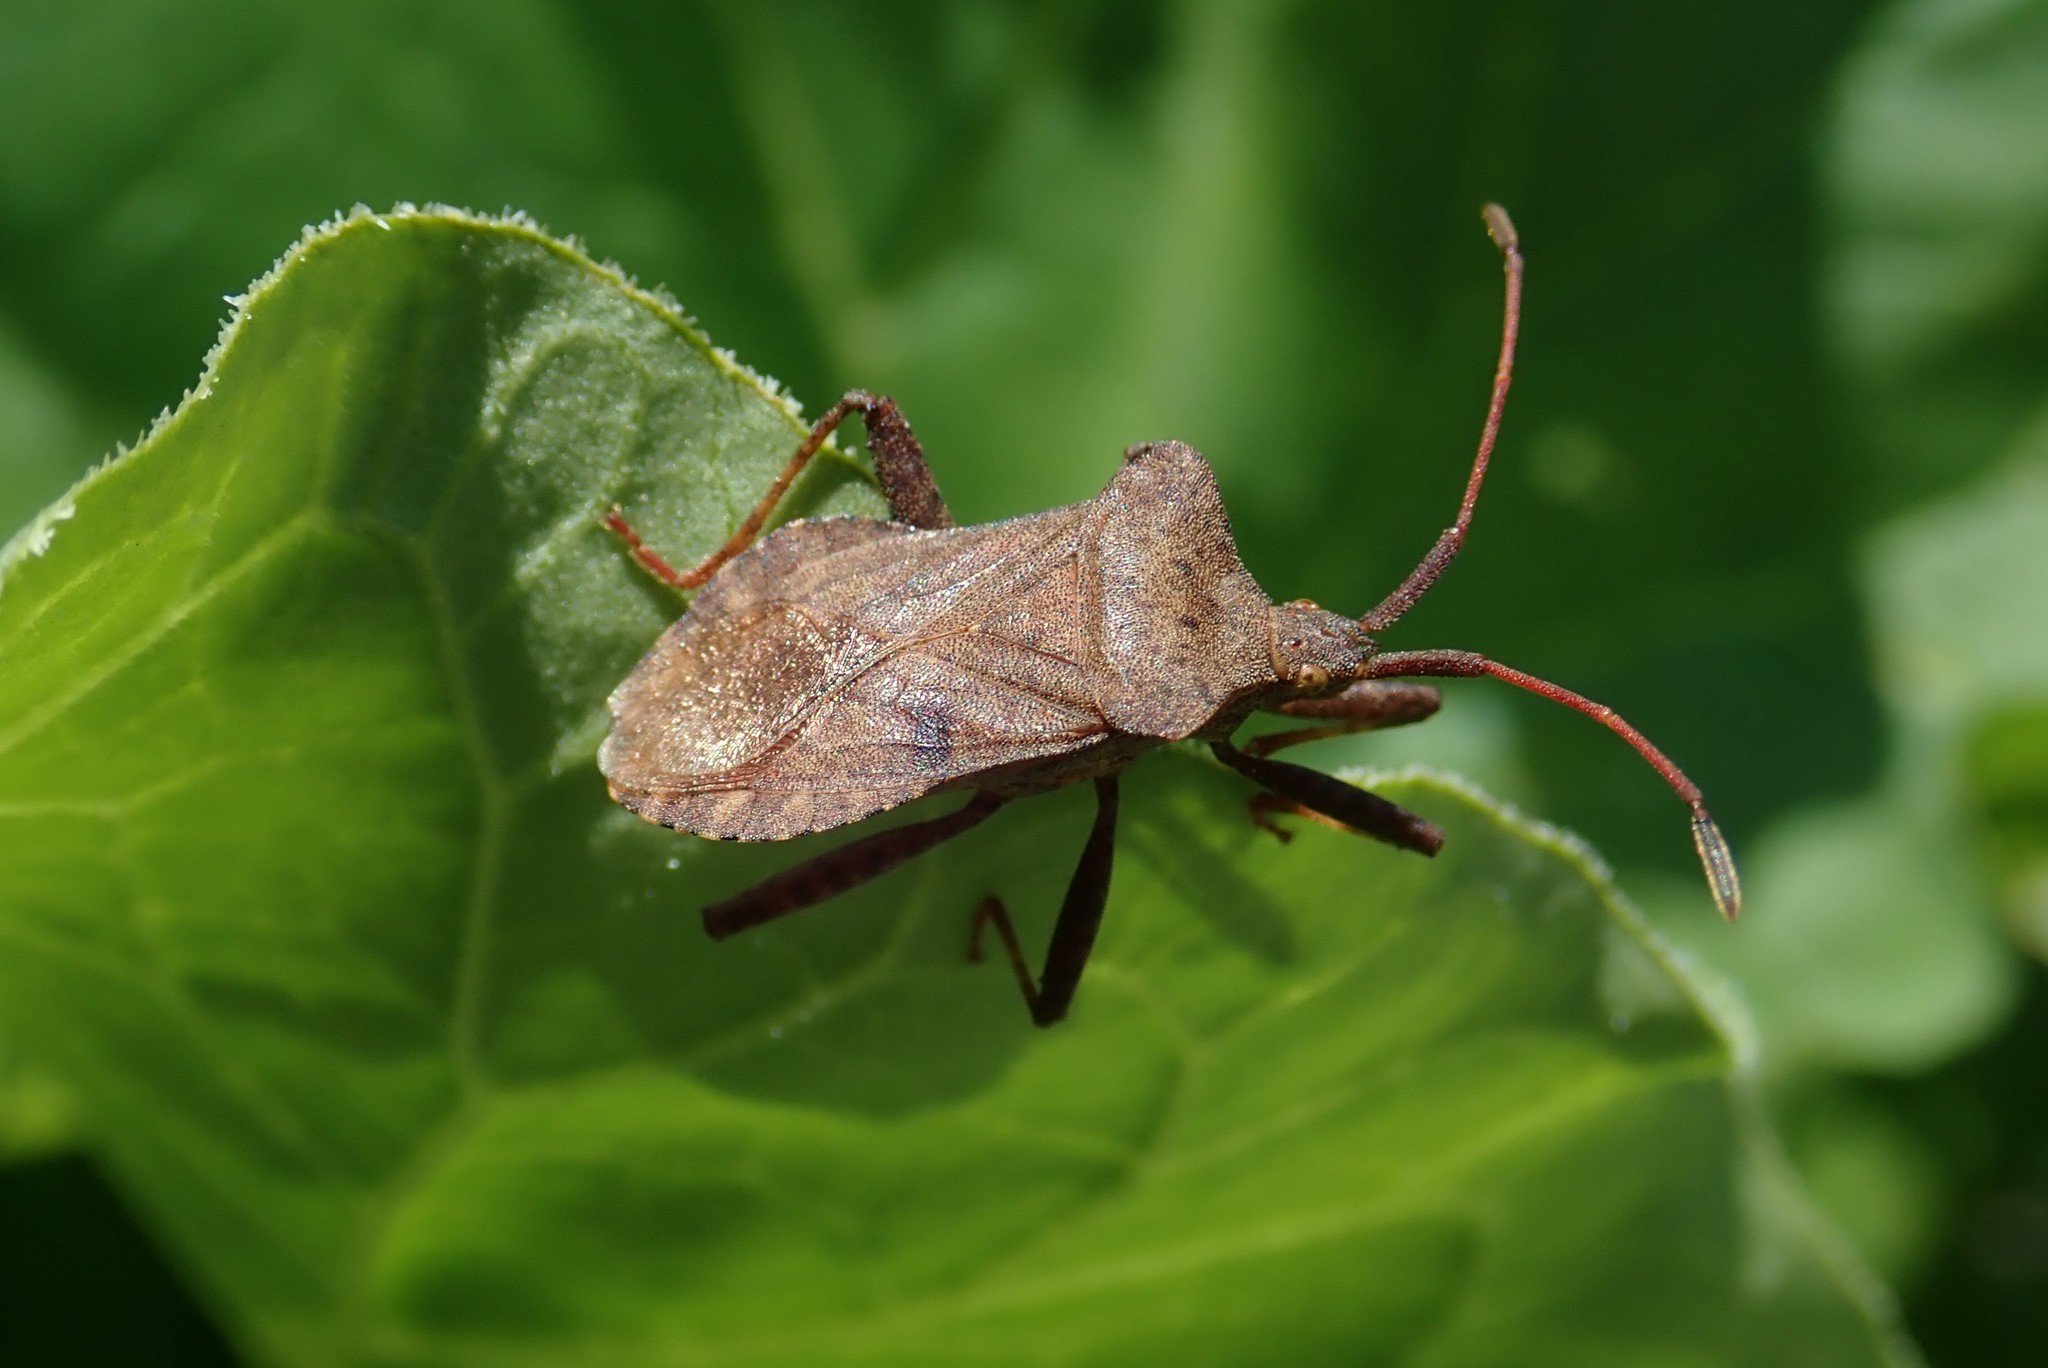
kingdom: Animalia
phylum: Arthropoda
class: Insecta
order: Hemiptera
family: Coreidae
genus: Coreus
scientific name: Coreus marginatus
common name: Dock bug
